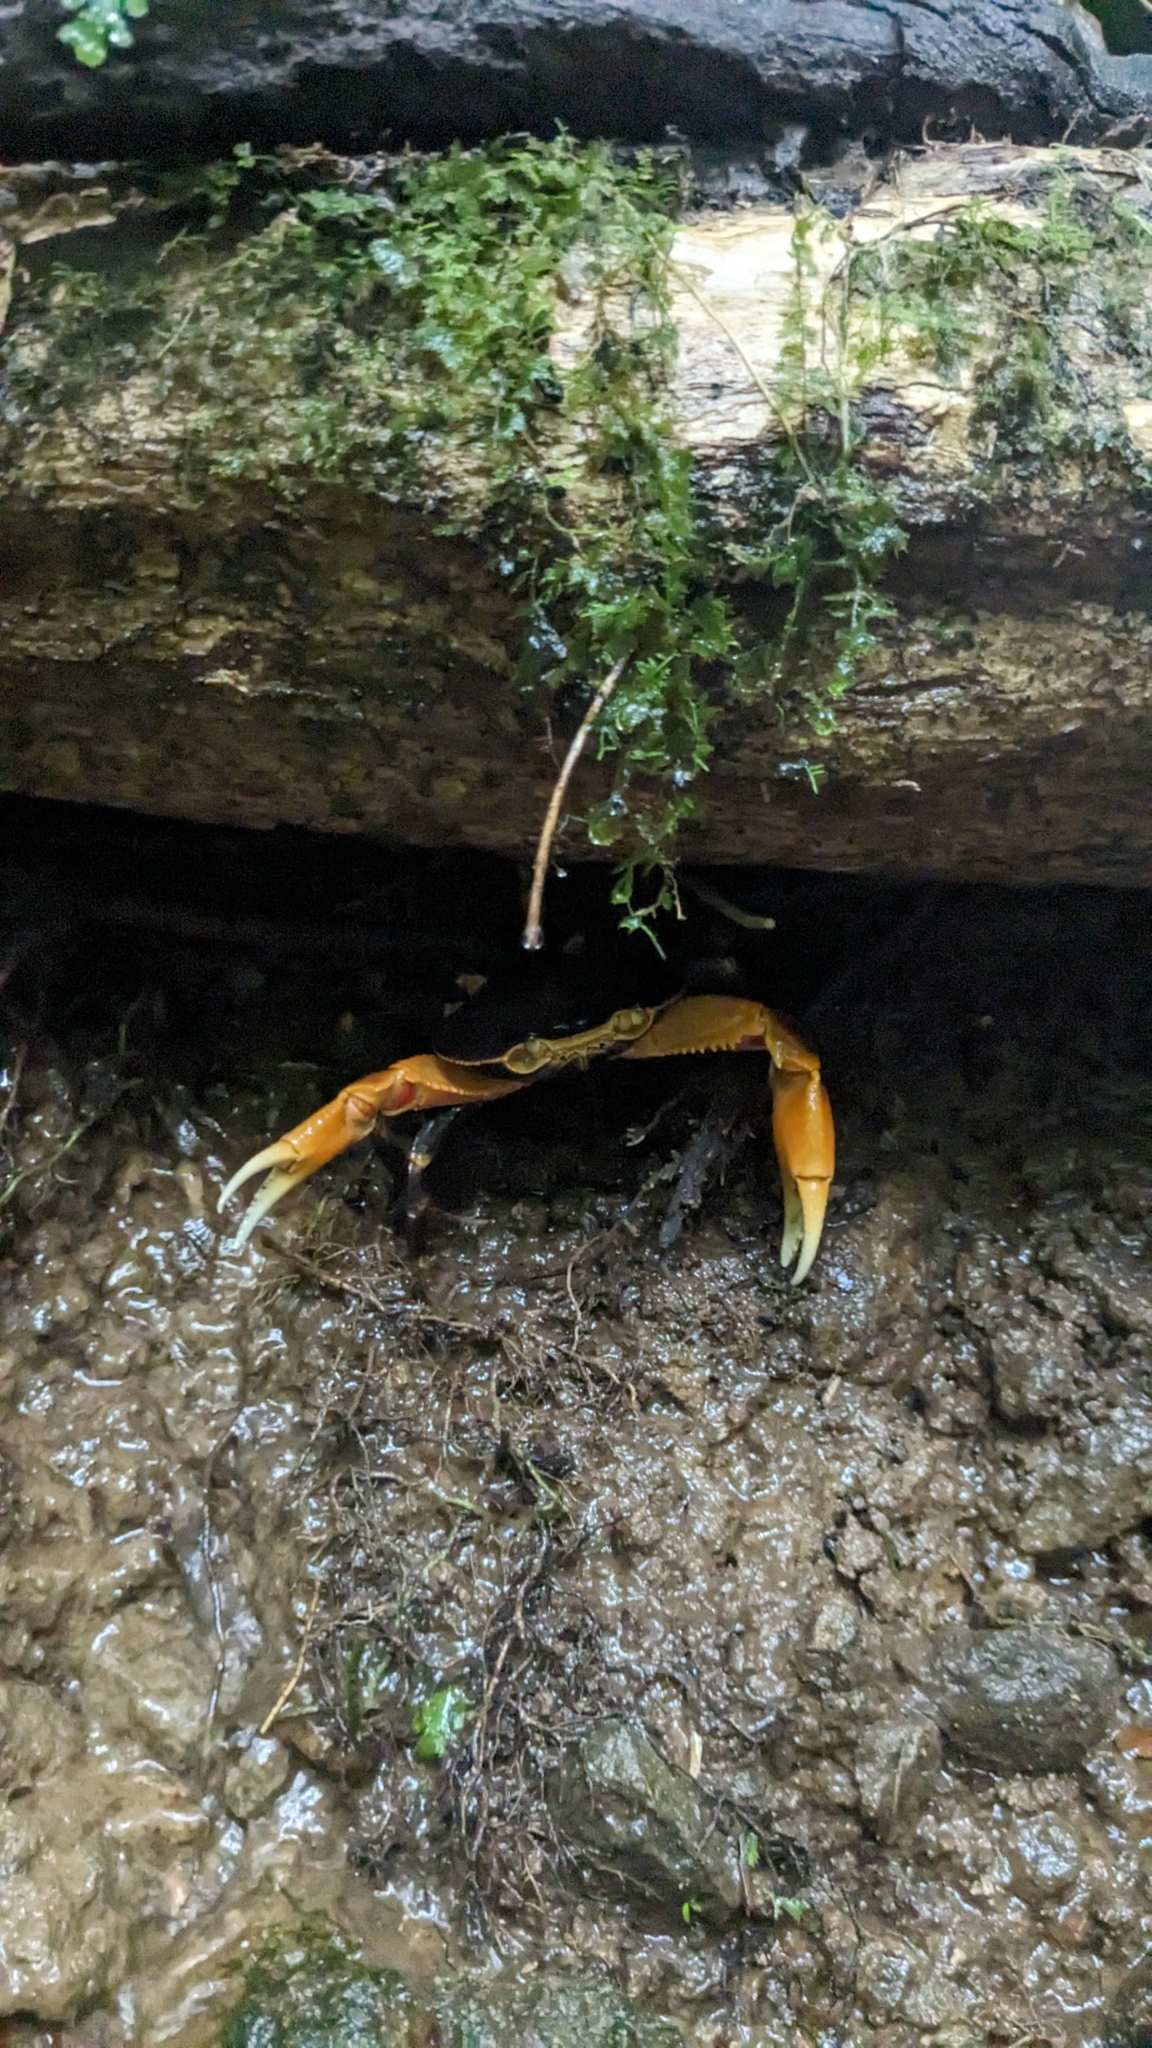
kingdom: Animalia
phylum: Arthropoda
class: Malacostraca
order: Decapoda
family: Pseudothelphusidae
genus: Guinotia
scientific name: Guinotia dentata
